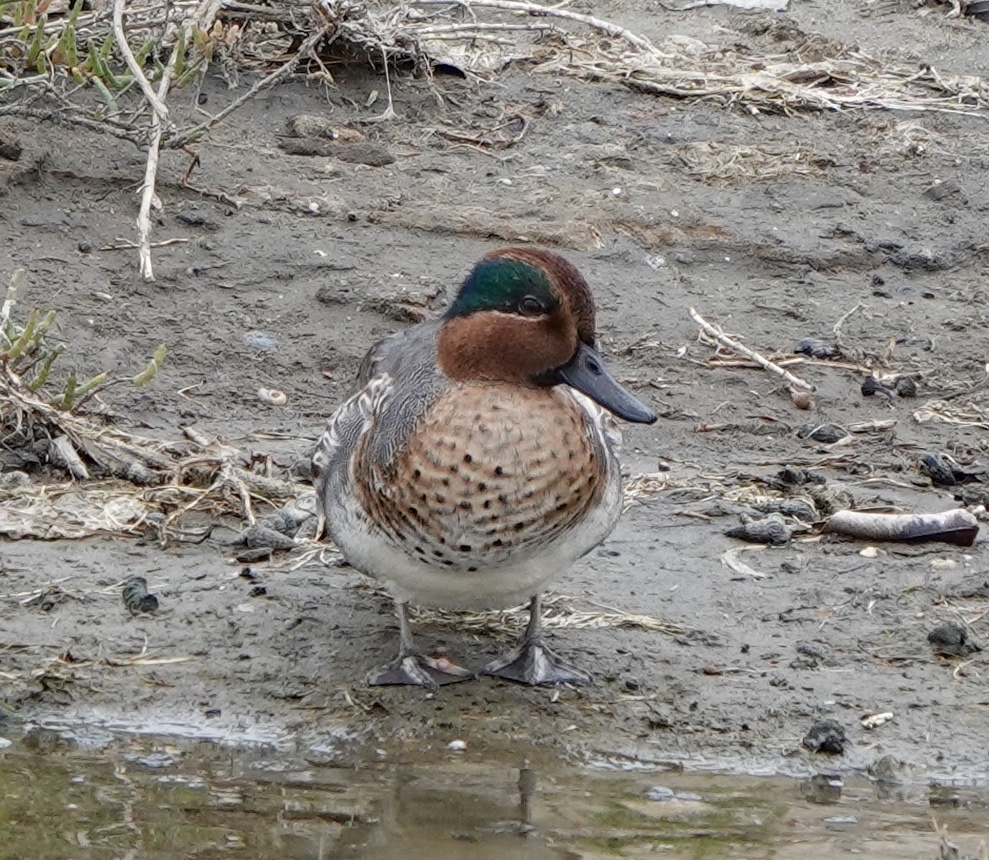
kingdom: Animalia
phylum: Chordata
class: Aves
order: Anseriformes
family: Anatidae
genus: Anas
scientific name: Anas crecca
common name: Eurasian teal
